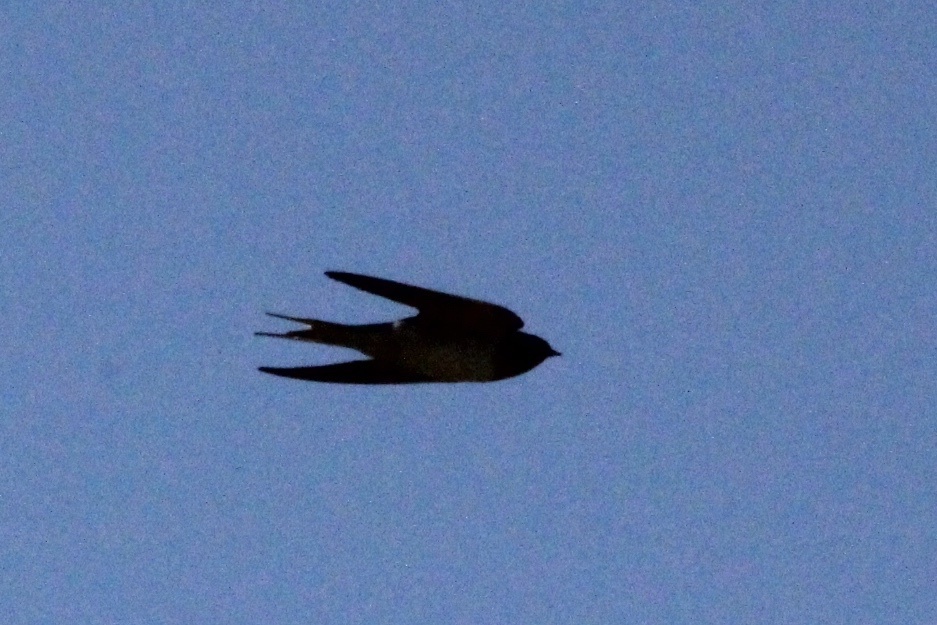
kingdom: Animalia
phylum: Chordata
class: Aves
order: Passeriformes
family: Hirundinidae
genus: Hirundo
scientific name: Hirundo rustica
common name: Barn swallow
